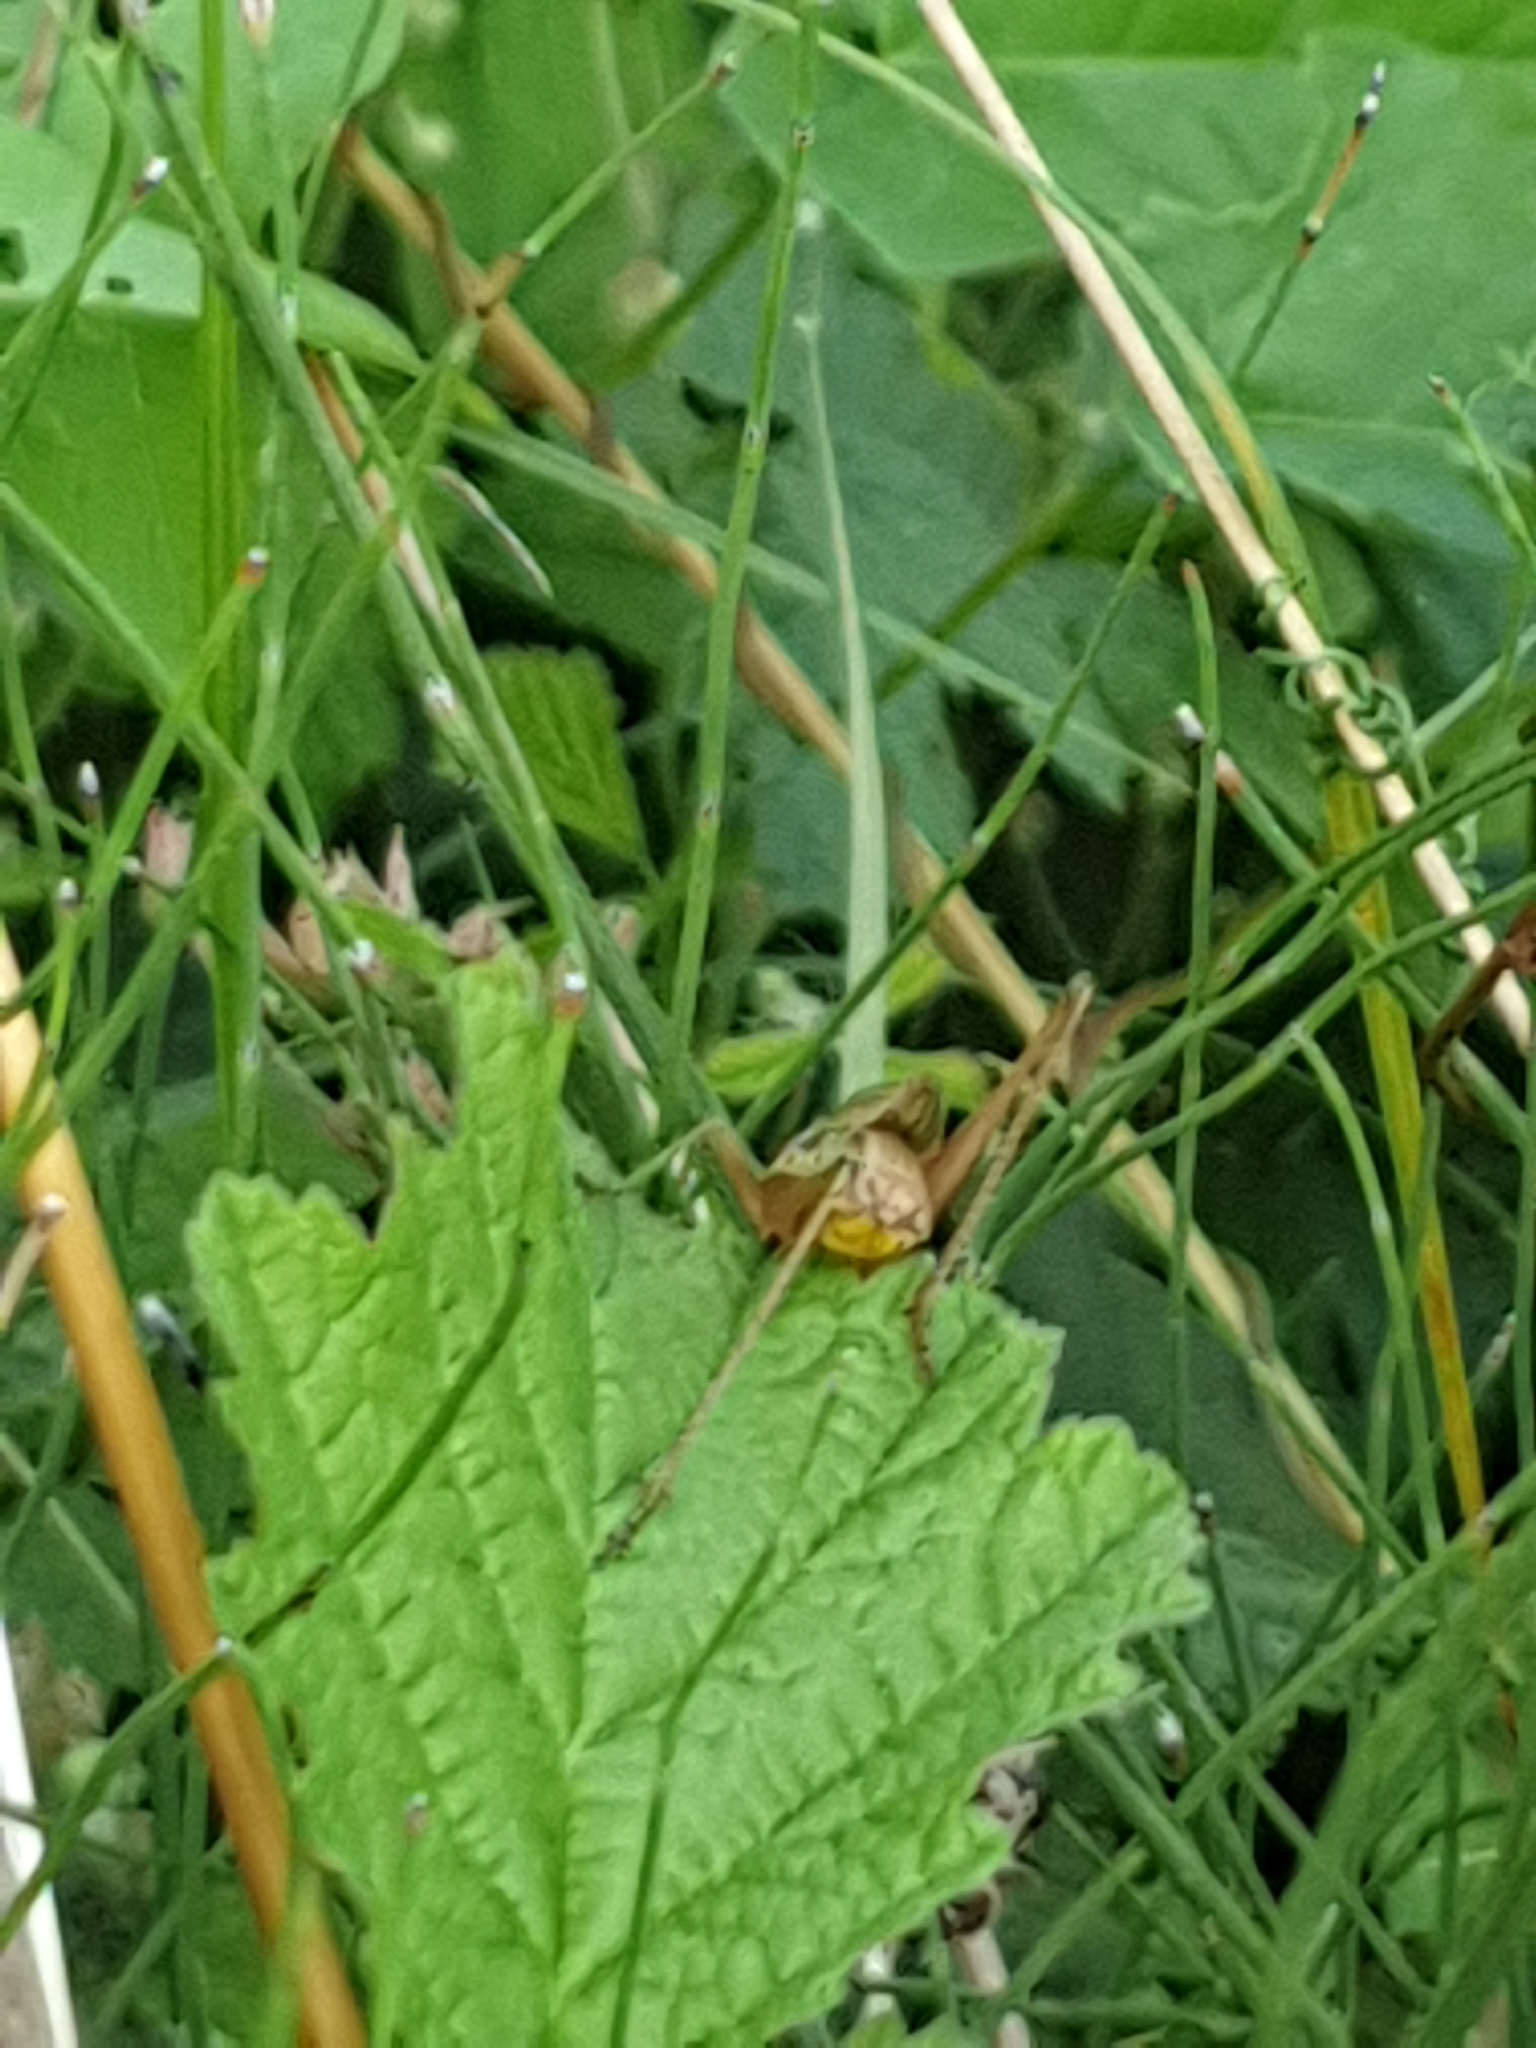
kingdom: Animalia
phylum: Arthropoda
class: Insecta
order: Orthoptera
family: Tettigoniidae
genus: Roeseliana
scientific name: Roeseliana roeselii
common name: Roesel's bush cricket
